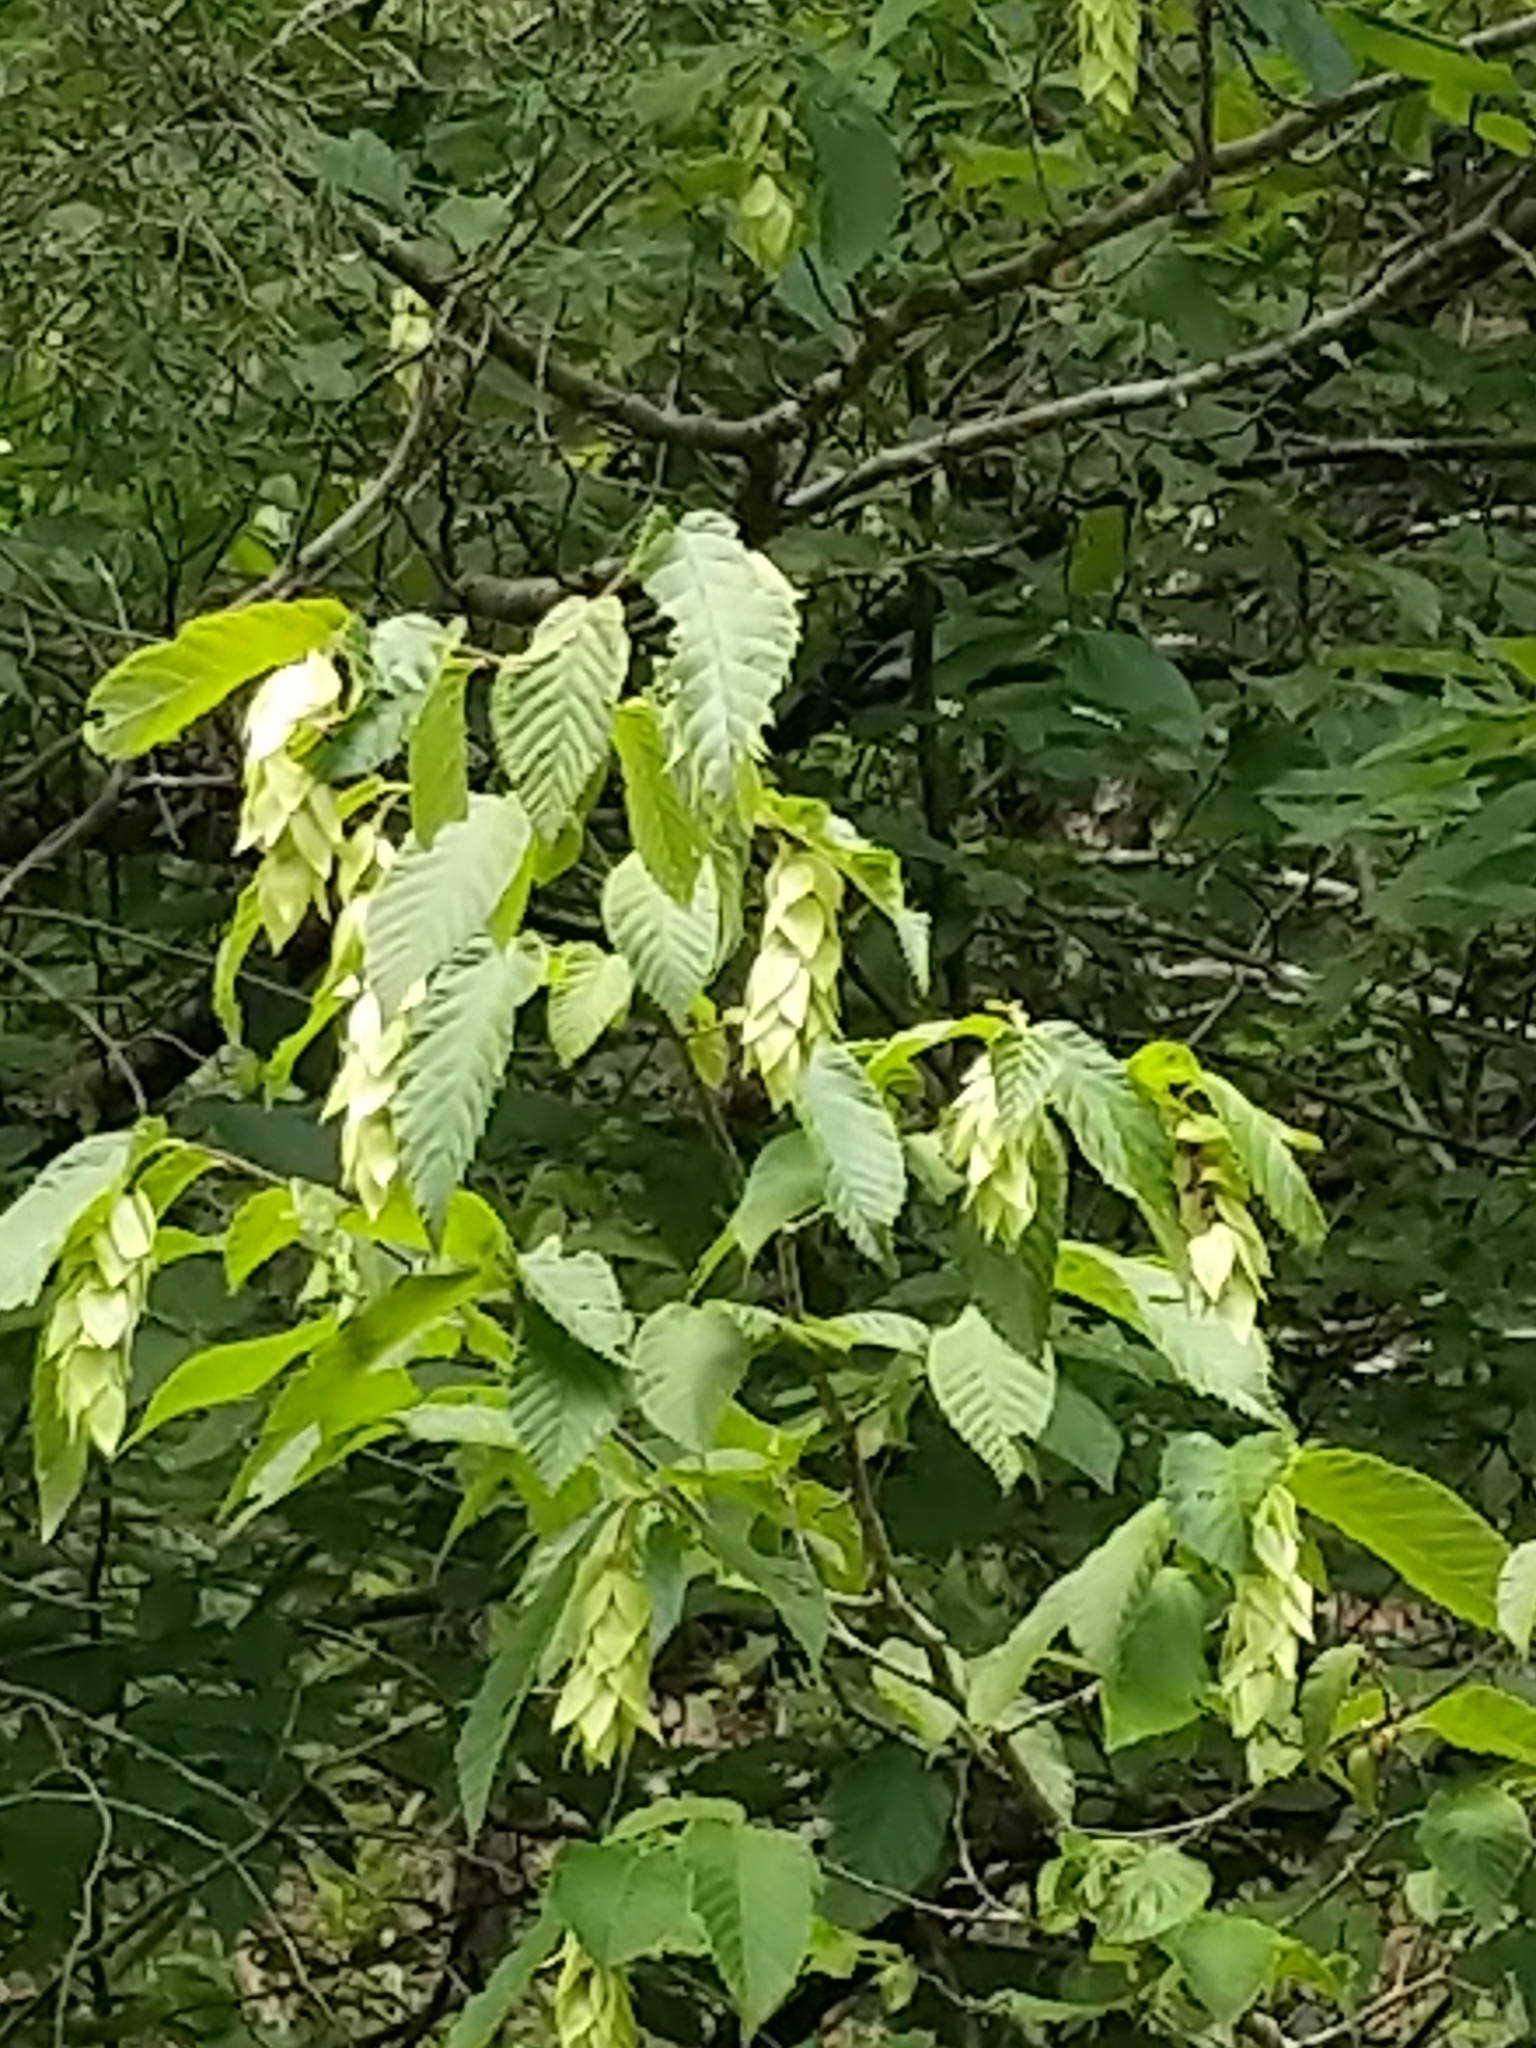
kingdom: Plantae
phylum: Tracheophyta
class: Magnoliopsida
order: Fagales
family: Betulaceae
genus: Ostrya
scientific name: Ostrya virginiana
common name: Ironwood
